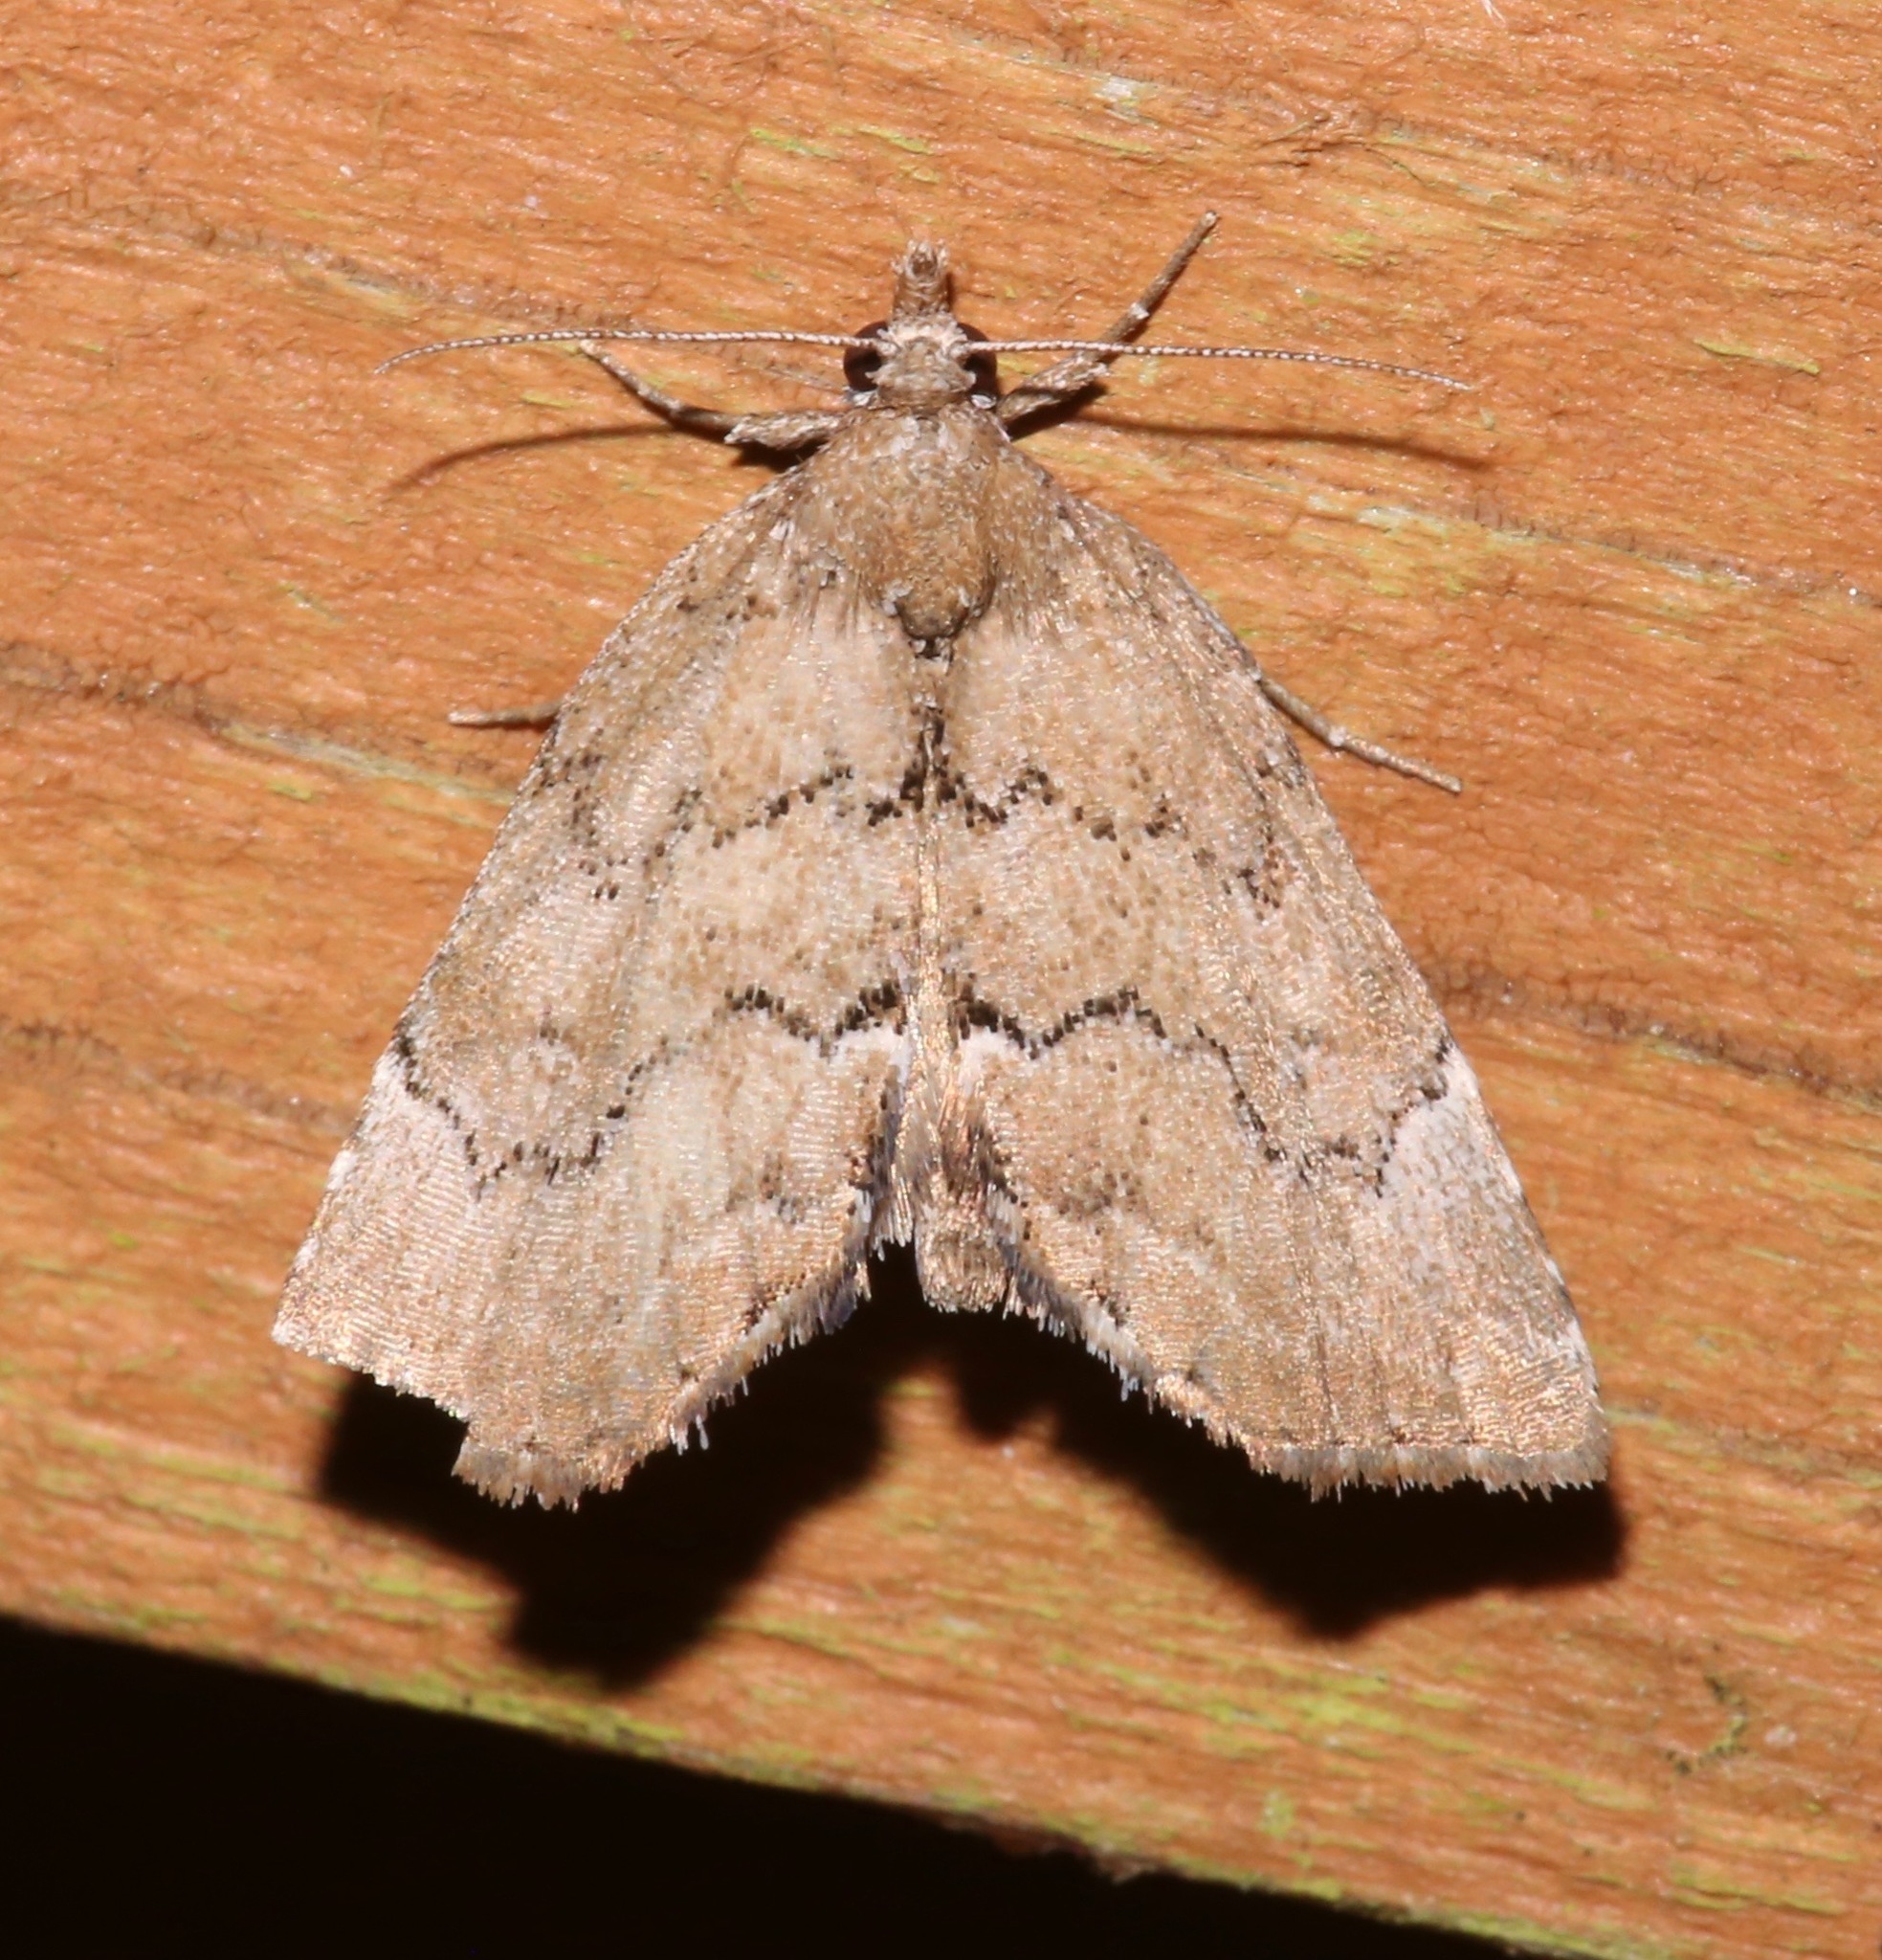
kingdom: Animalia
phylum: Arthropoda
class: Insecta
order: Lepidoptera
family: Erebidae
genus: Cutina
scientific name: Cutina aluticolor
